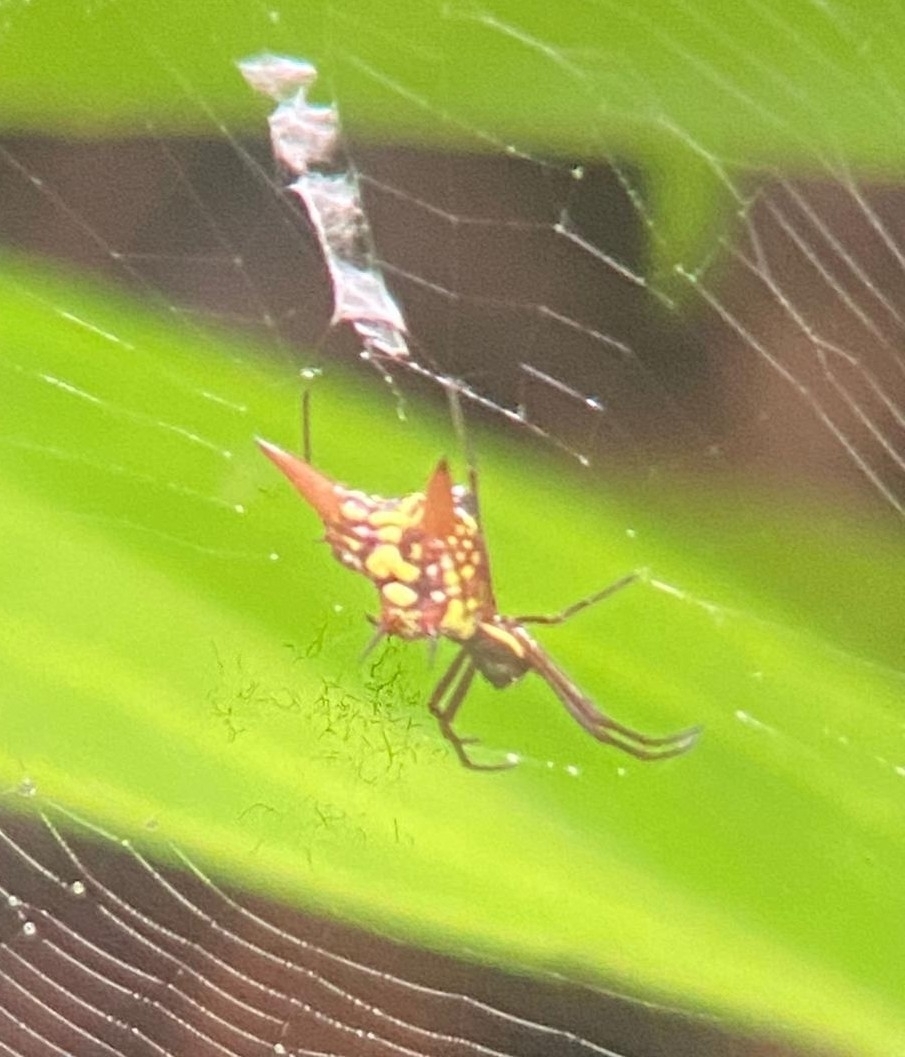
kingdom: Animalia
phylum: Arthropoda
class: Arachnida
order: Araneae
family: Araneidae
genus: Micrathena
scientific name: Micrathena sexspinosa
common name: Orb weavers
